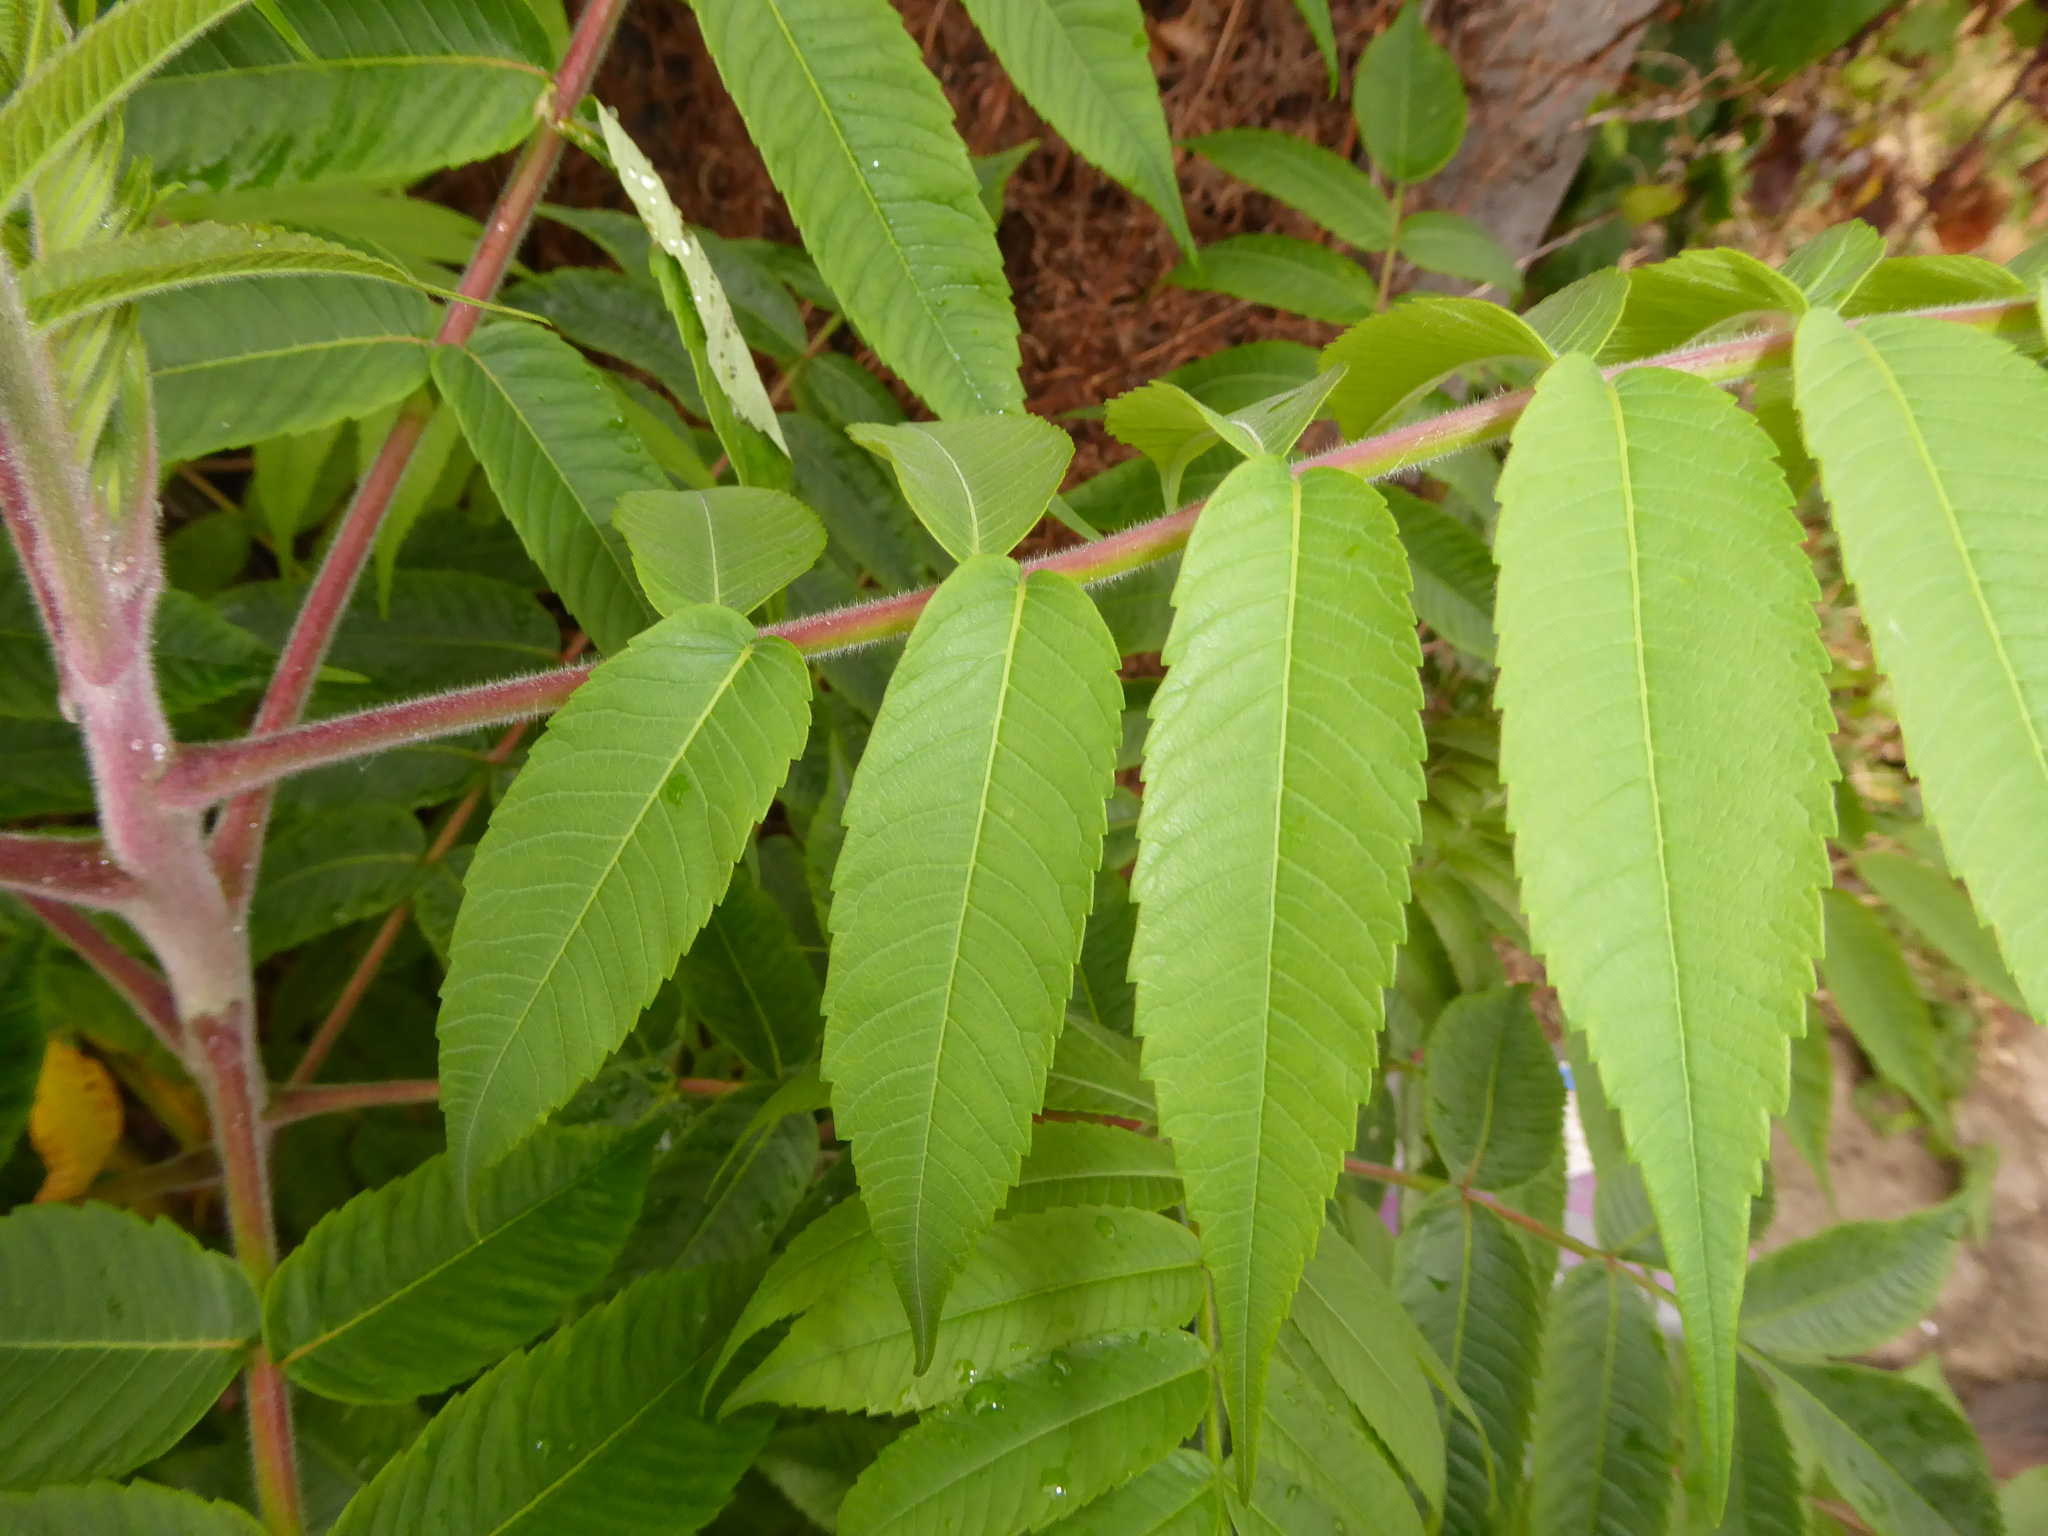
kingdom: Plantae
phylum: Tracheophyta
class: Magnoliopsida
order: Sapindales
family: Anacardiaceae
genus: Rhus
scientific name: Rhus typhina
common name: Staghorn sumac
